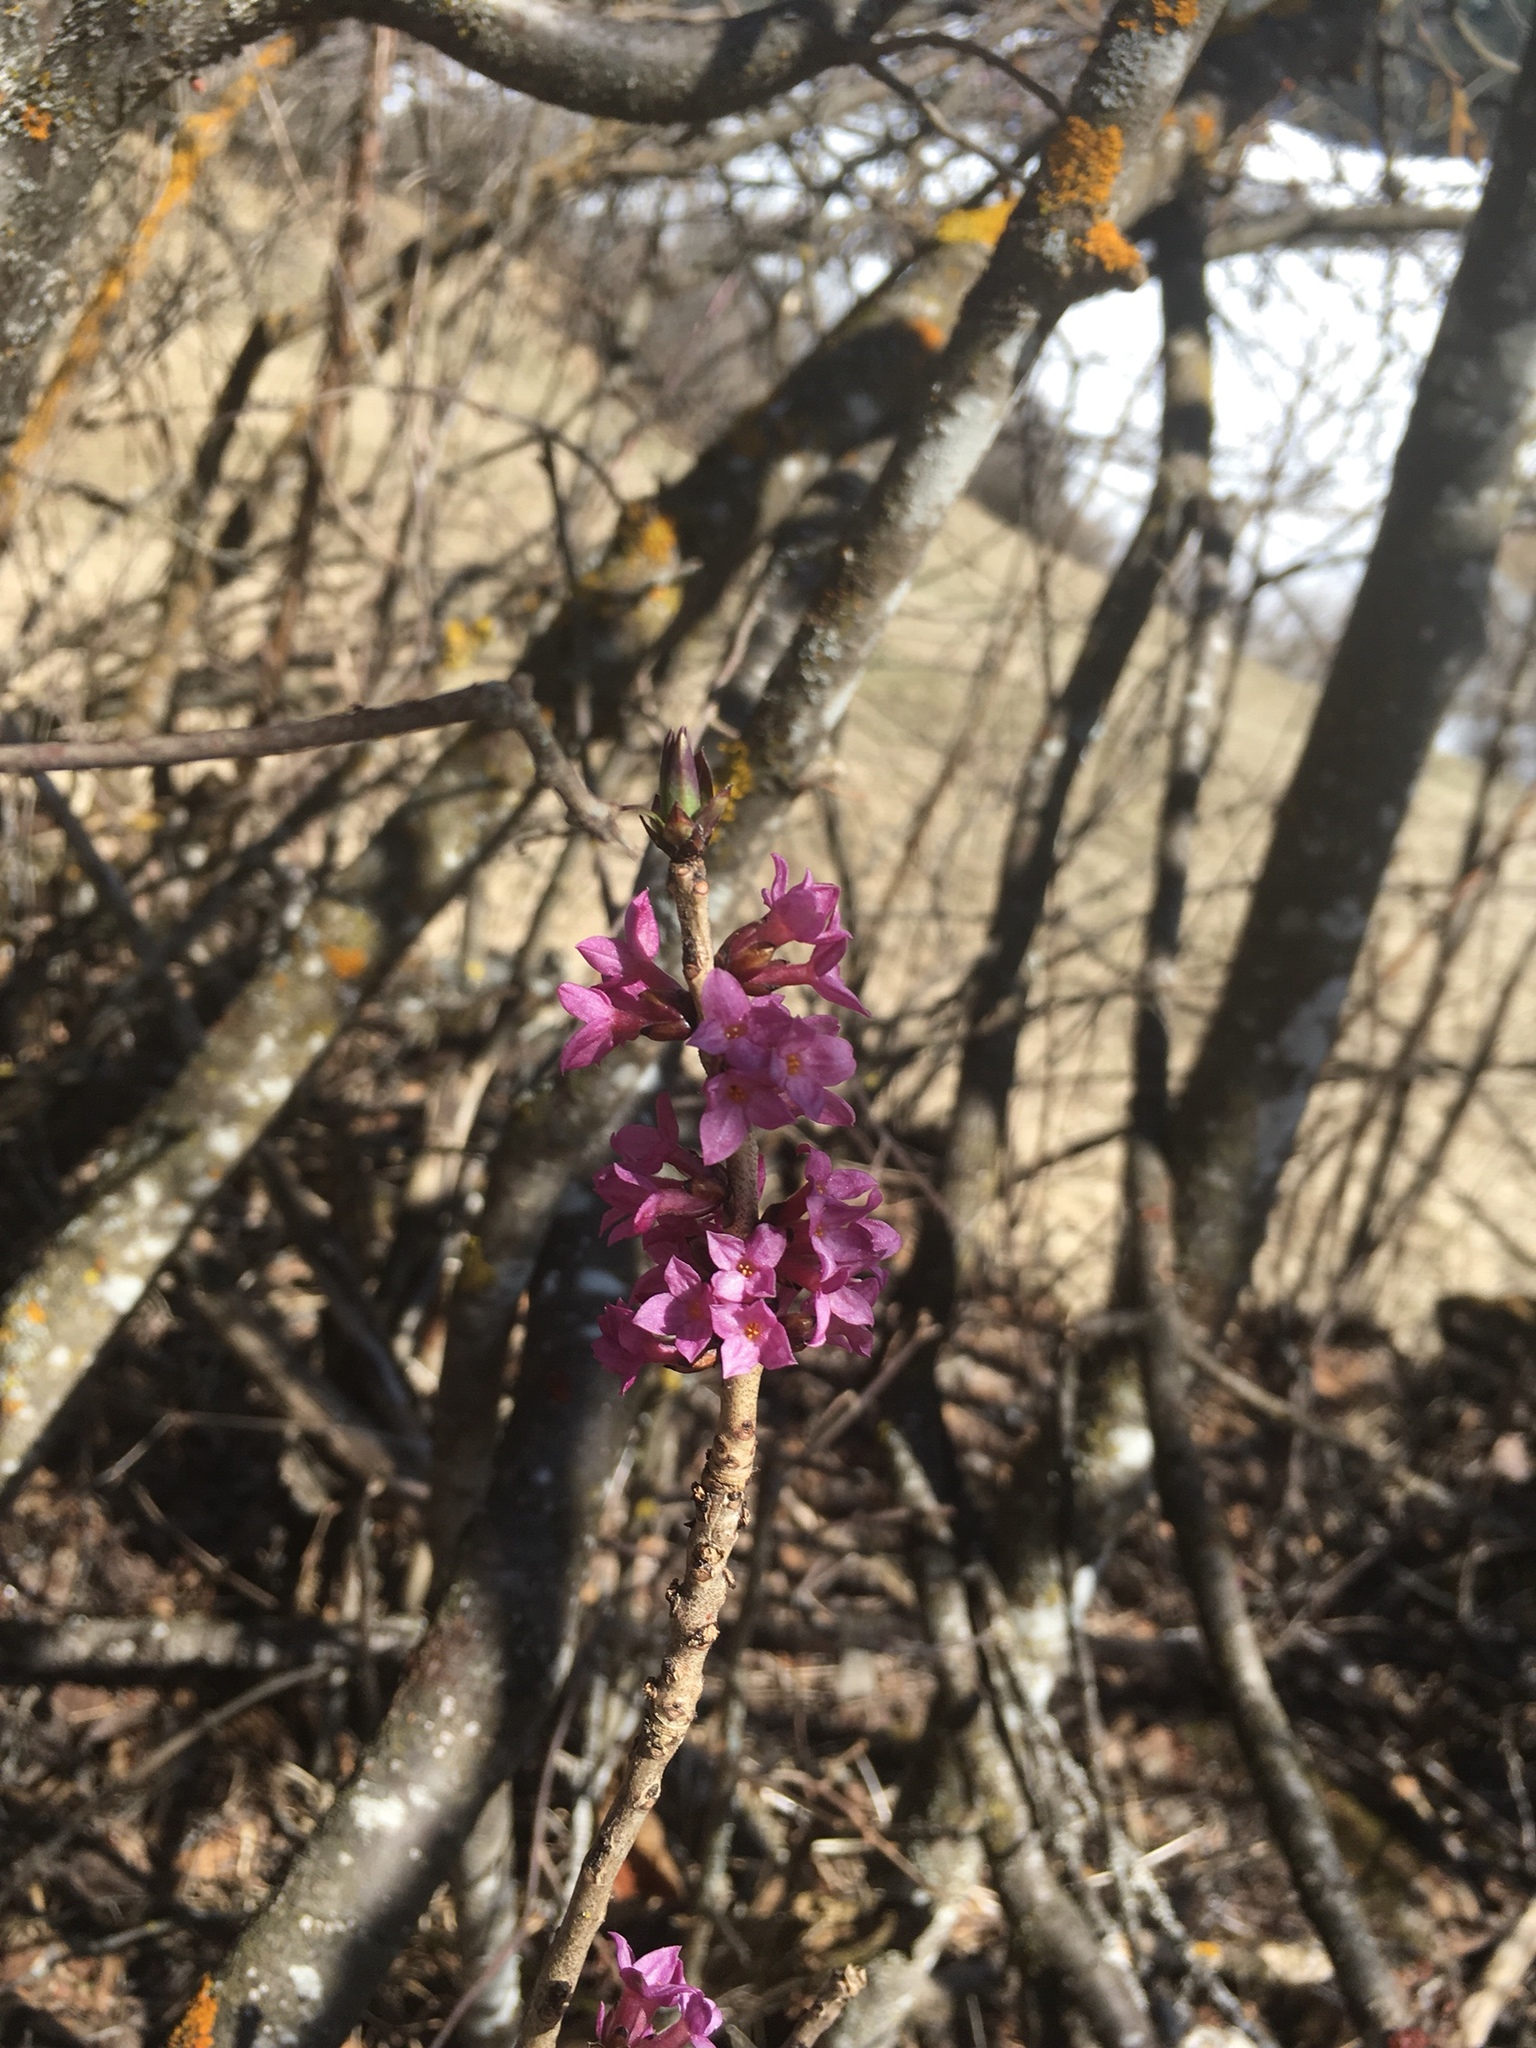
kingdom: Plantae
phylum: Tracheophyta
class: Magnoliopsida
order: Malvales
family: Thymelaeaceae
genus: Daphne
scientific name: Daphne mezereum
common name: Mezereon
